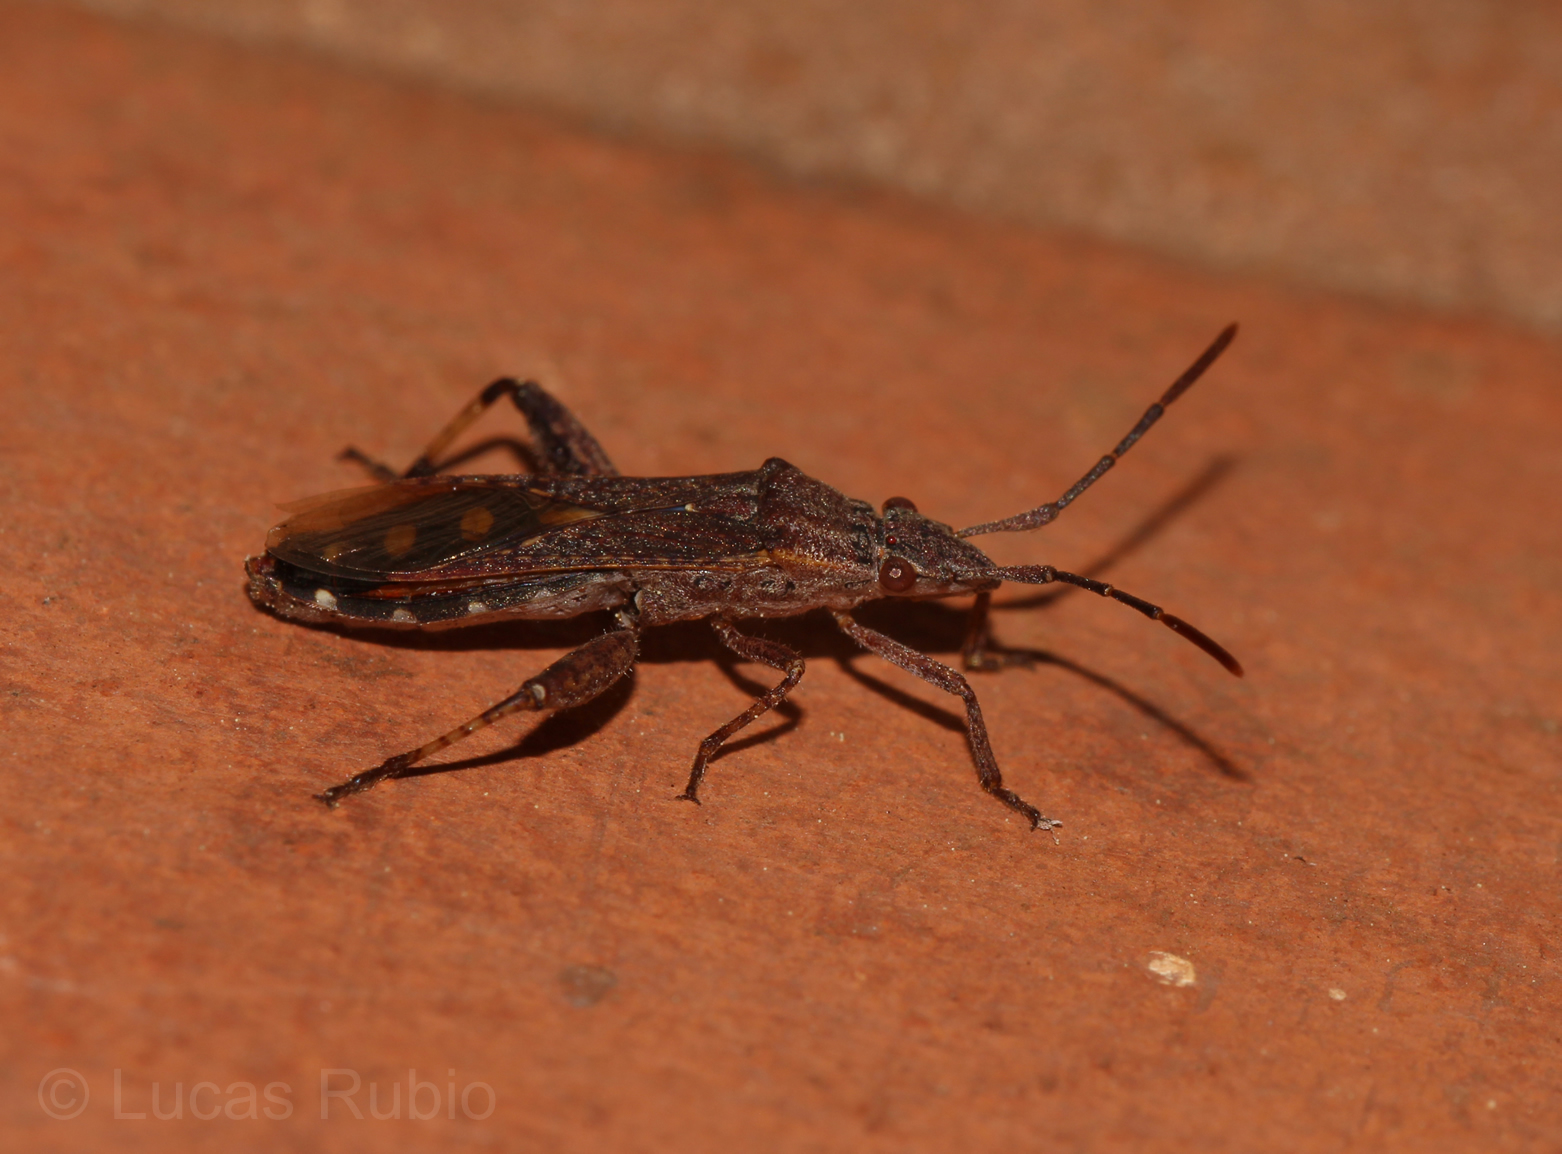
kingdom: Animalia
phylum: Arthropoda
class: Insecta
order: Hemiptera
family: Alydidae
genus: Apidaurus
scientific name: Apidaurus conspersus
